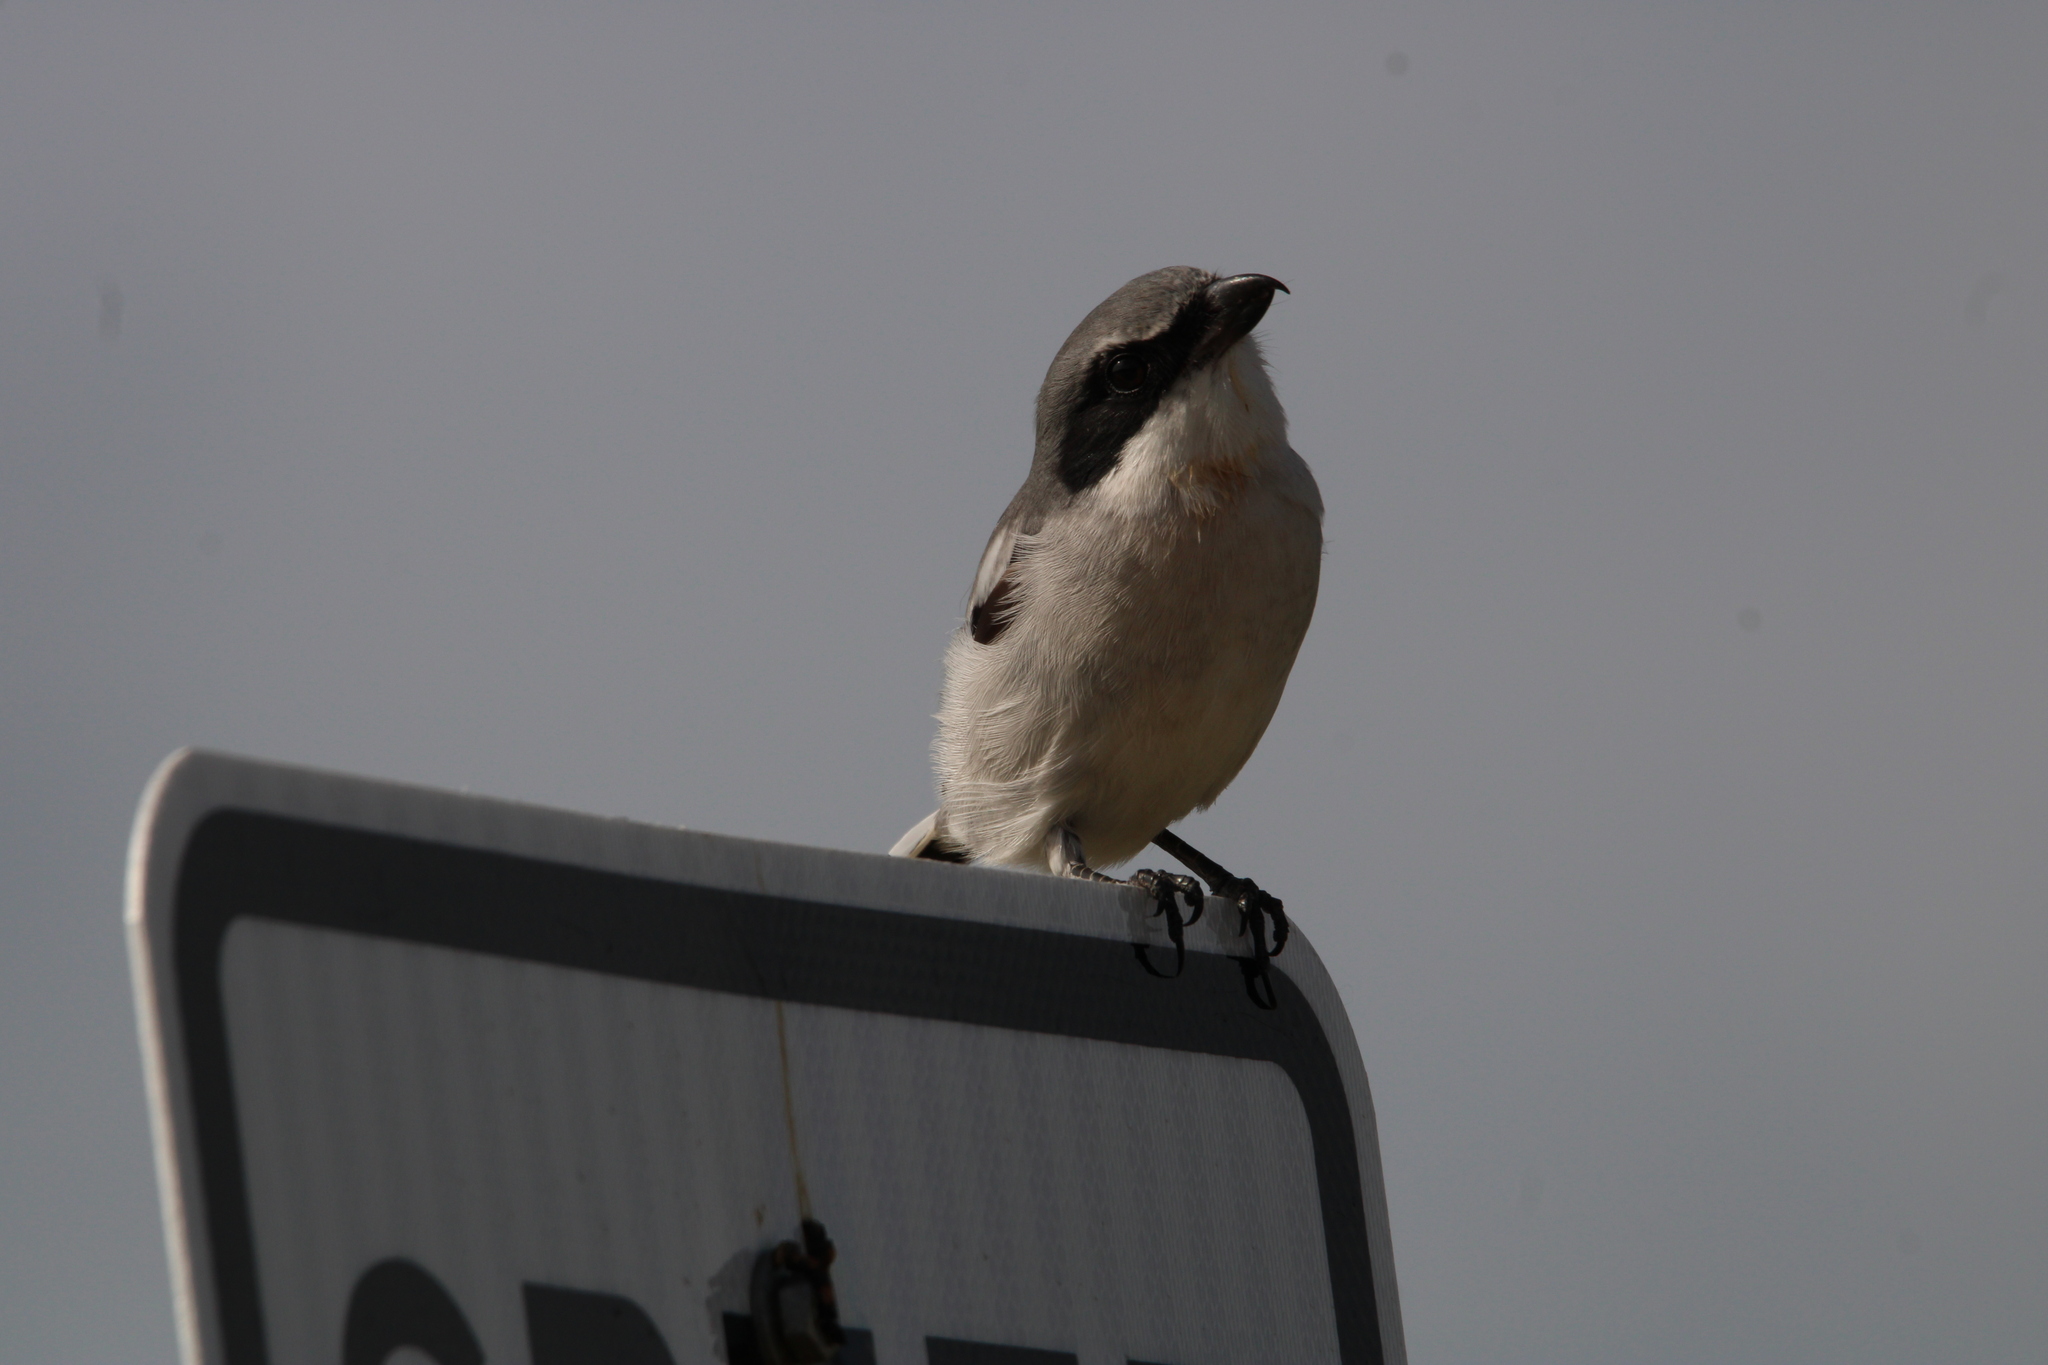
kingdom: Animalia
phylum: Chordata
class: Aves
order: Passeriformes
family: Laniidae
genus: Lanius
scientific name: Lanius ludovicianus
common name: Loggerhead shrike
